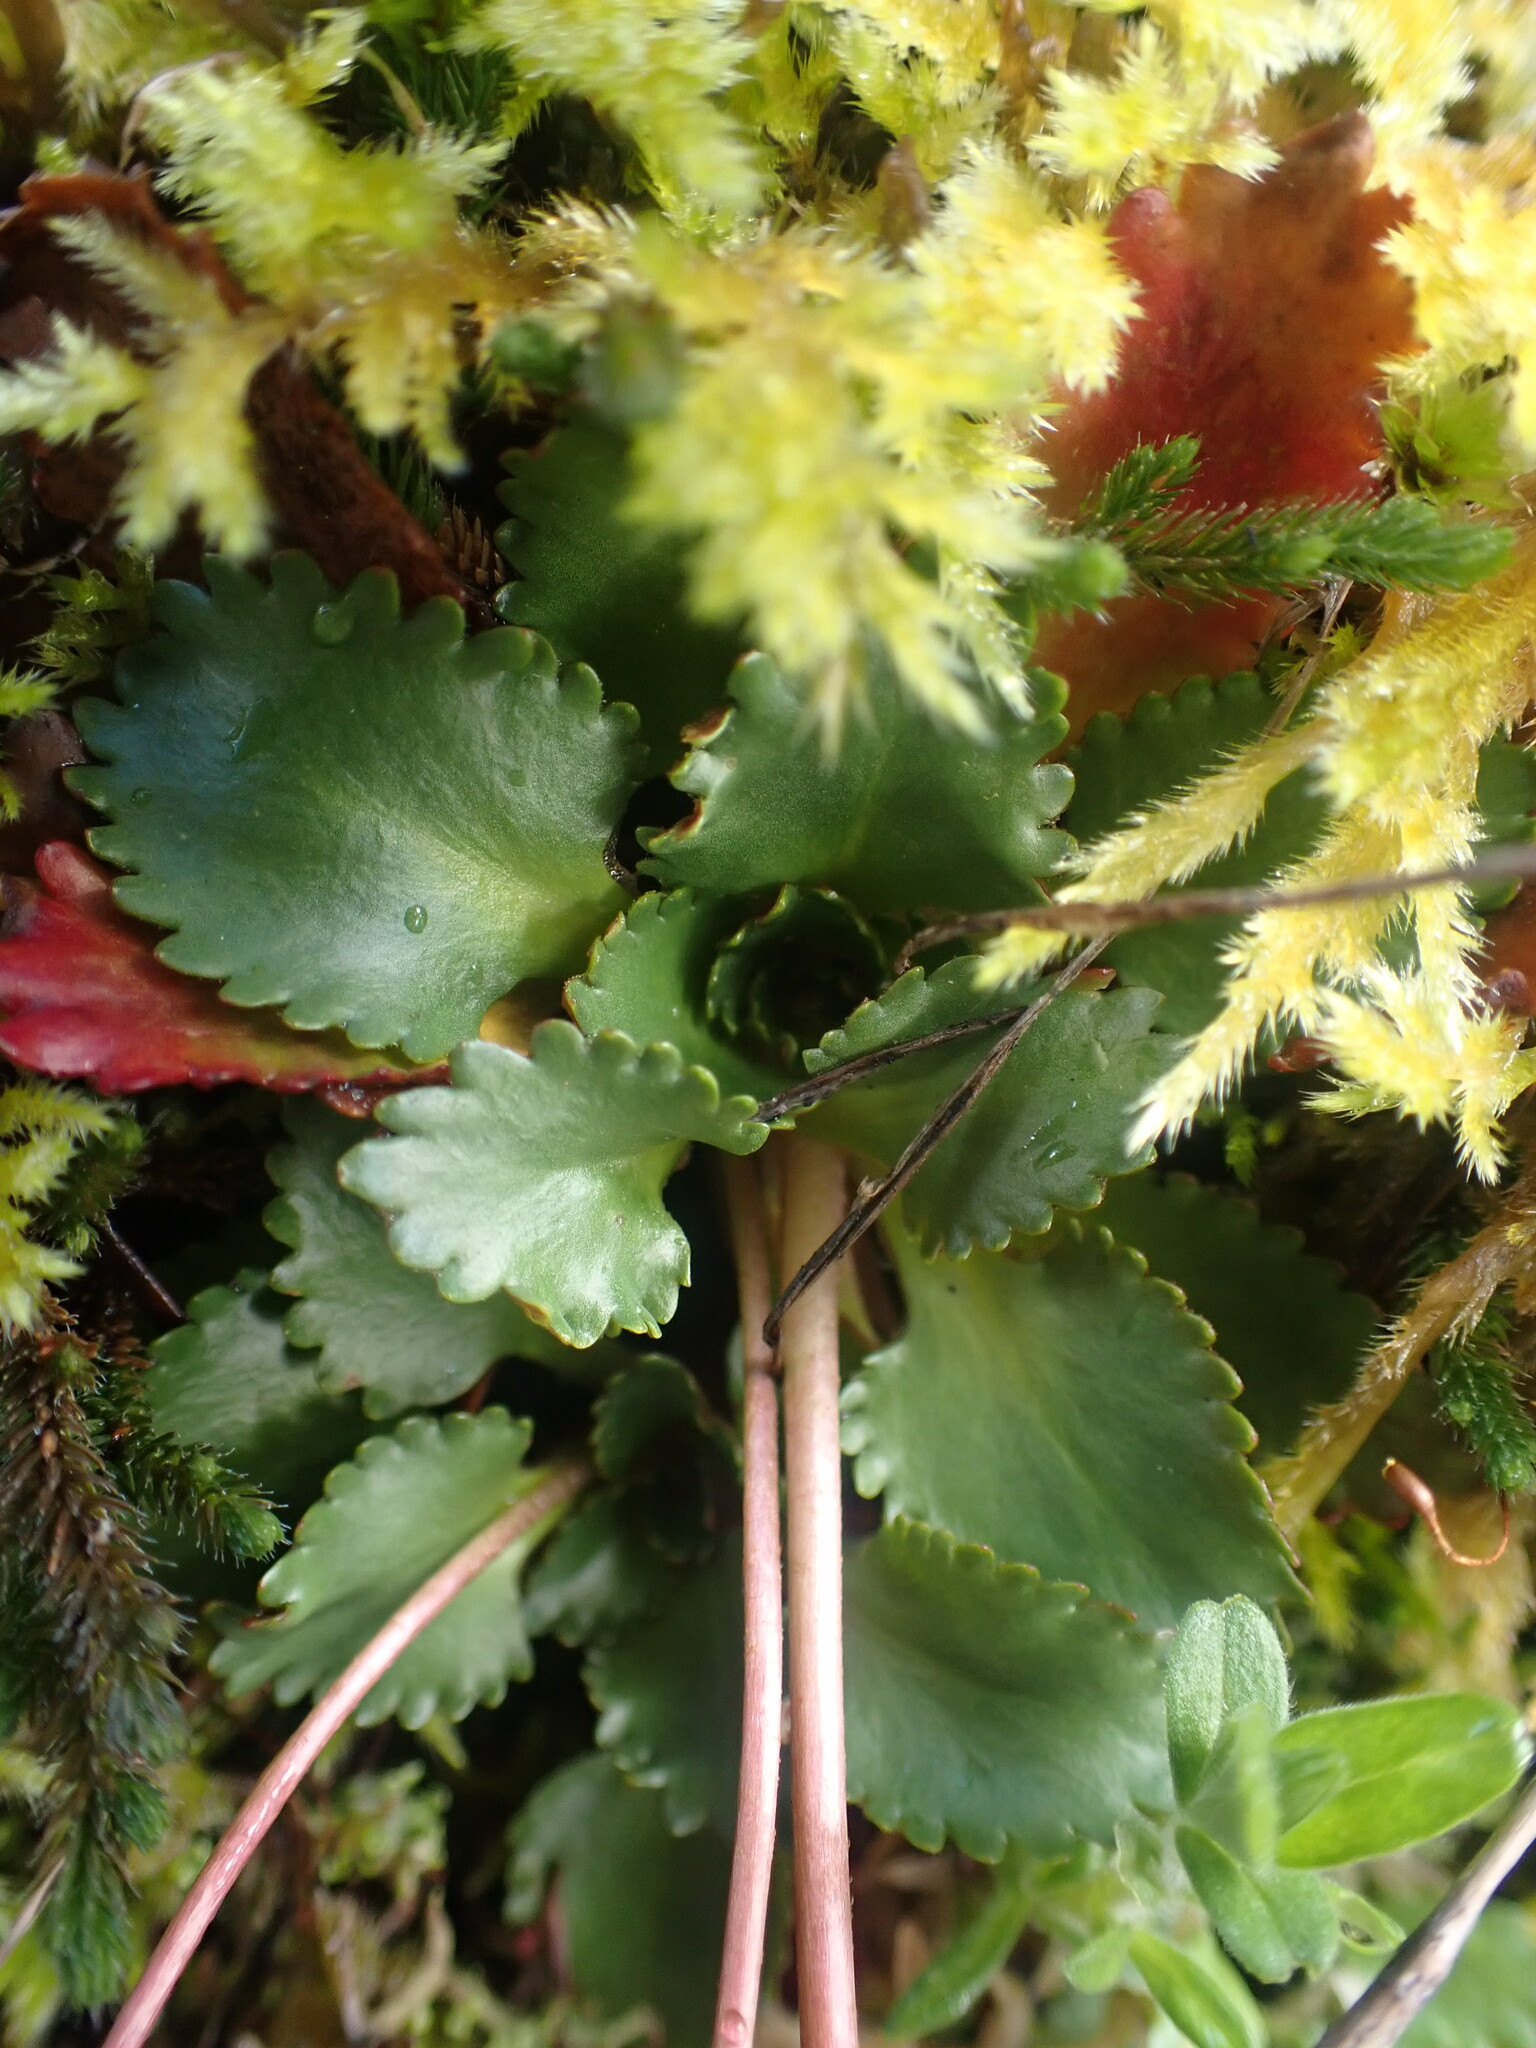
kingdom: Plantae
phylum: Tracheophyta
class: Magnoliopsida
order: Saxifragales
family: Saxifragaceae
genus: Micranthes
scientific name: Micranthes rufidula
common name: Rustyhair saxifrage
